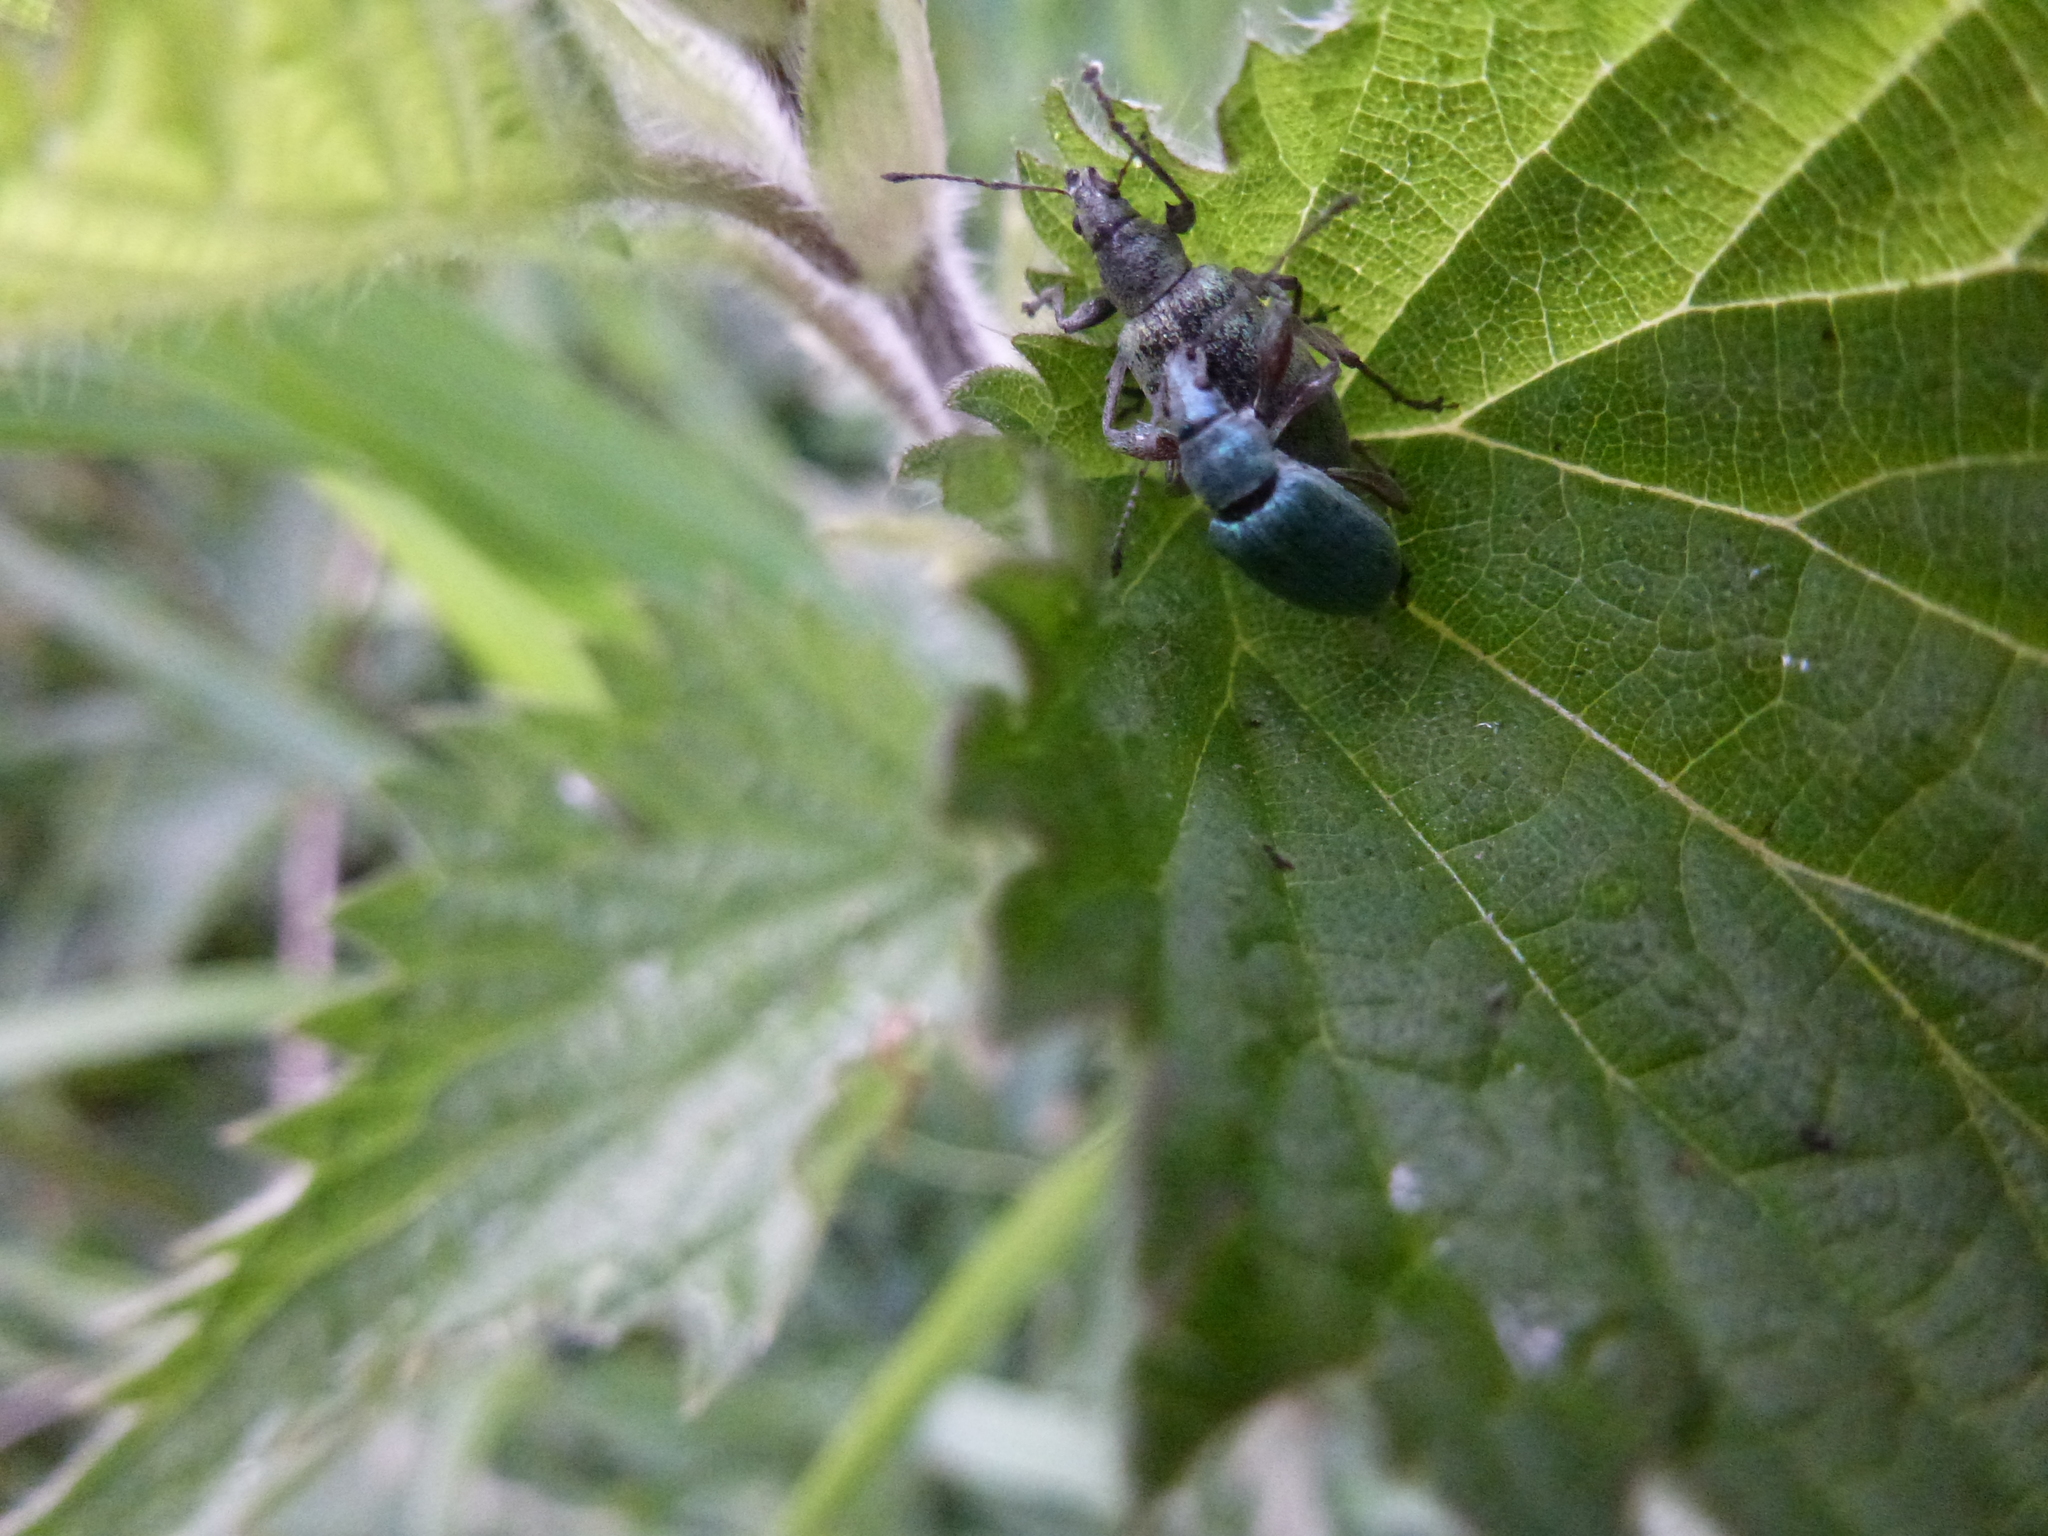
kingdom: Animalia
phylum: Arthropoda
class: Insecta
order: Coleoptera
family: Curculionidae
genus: Phyllobius
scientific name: Phyllobius pomaceus
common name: Green nettle weevil
